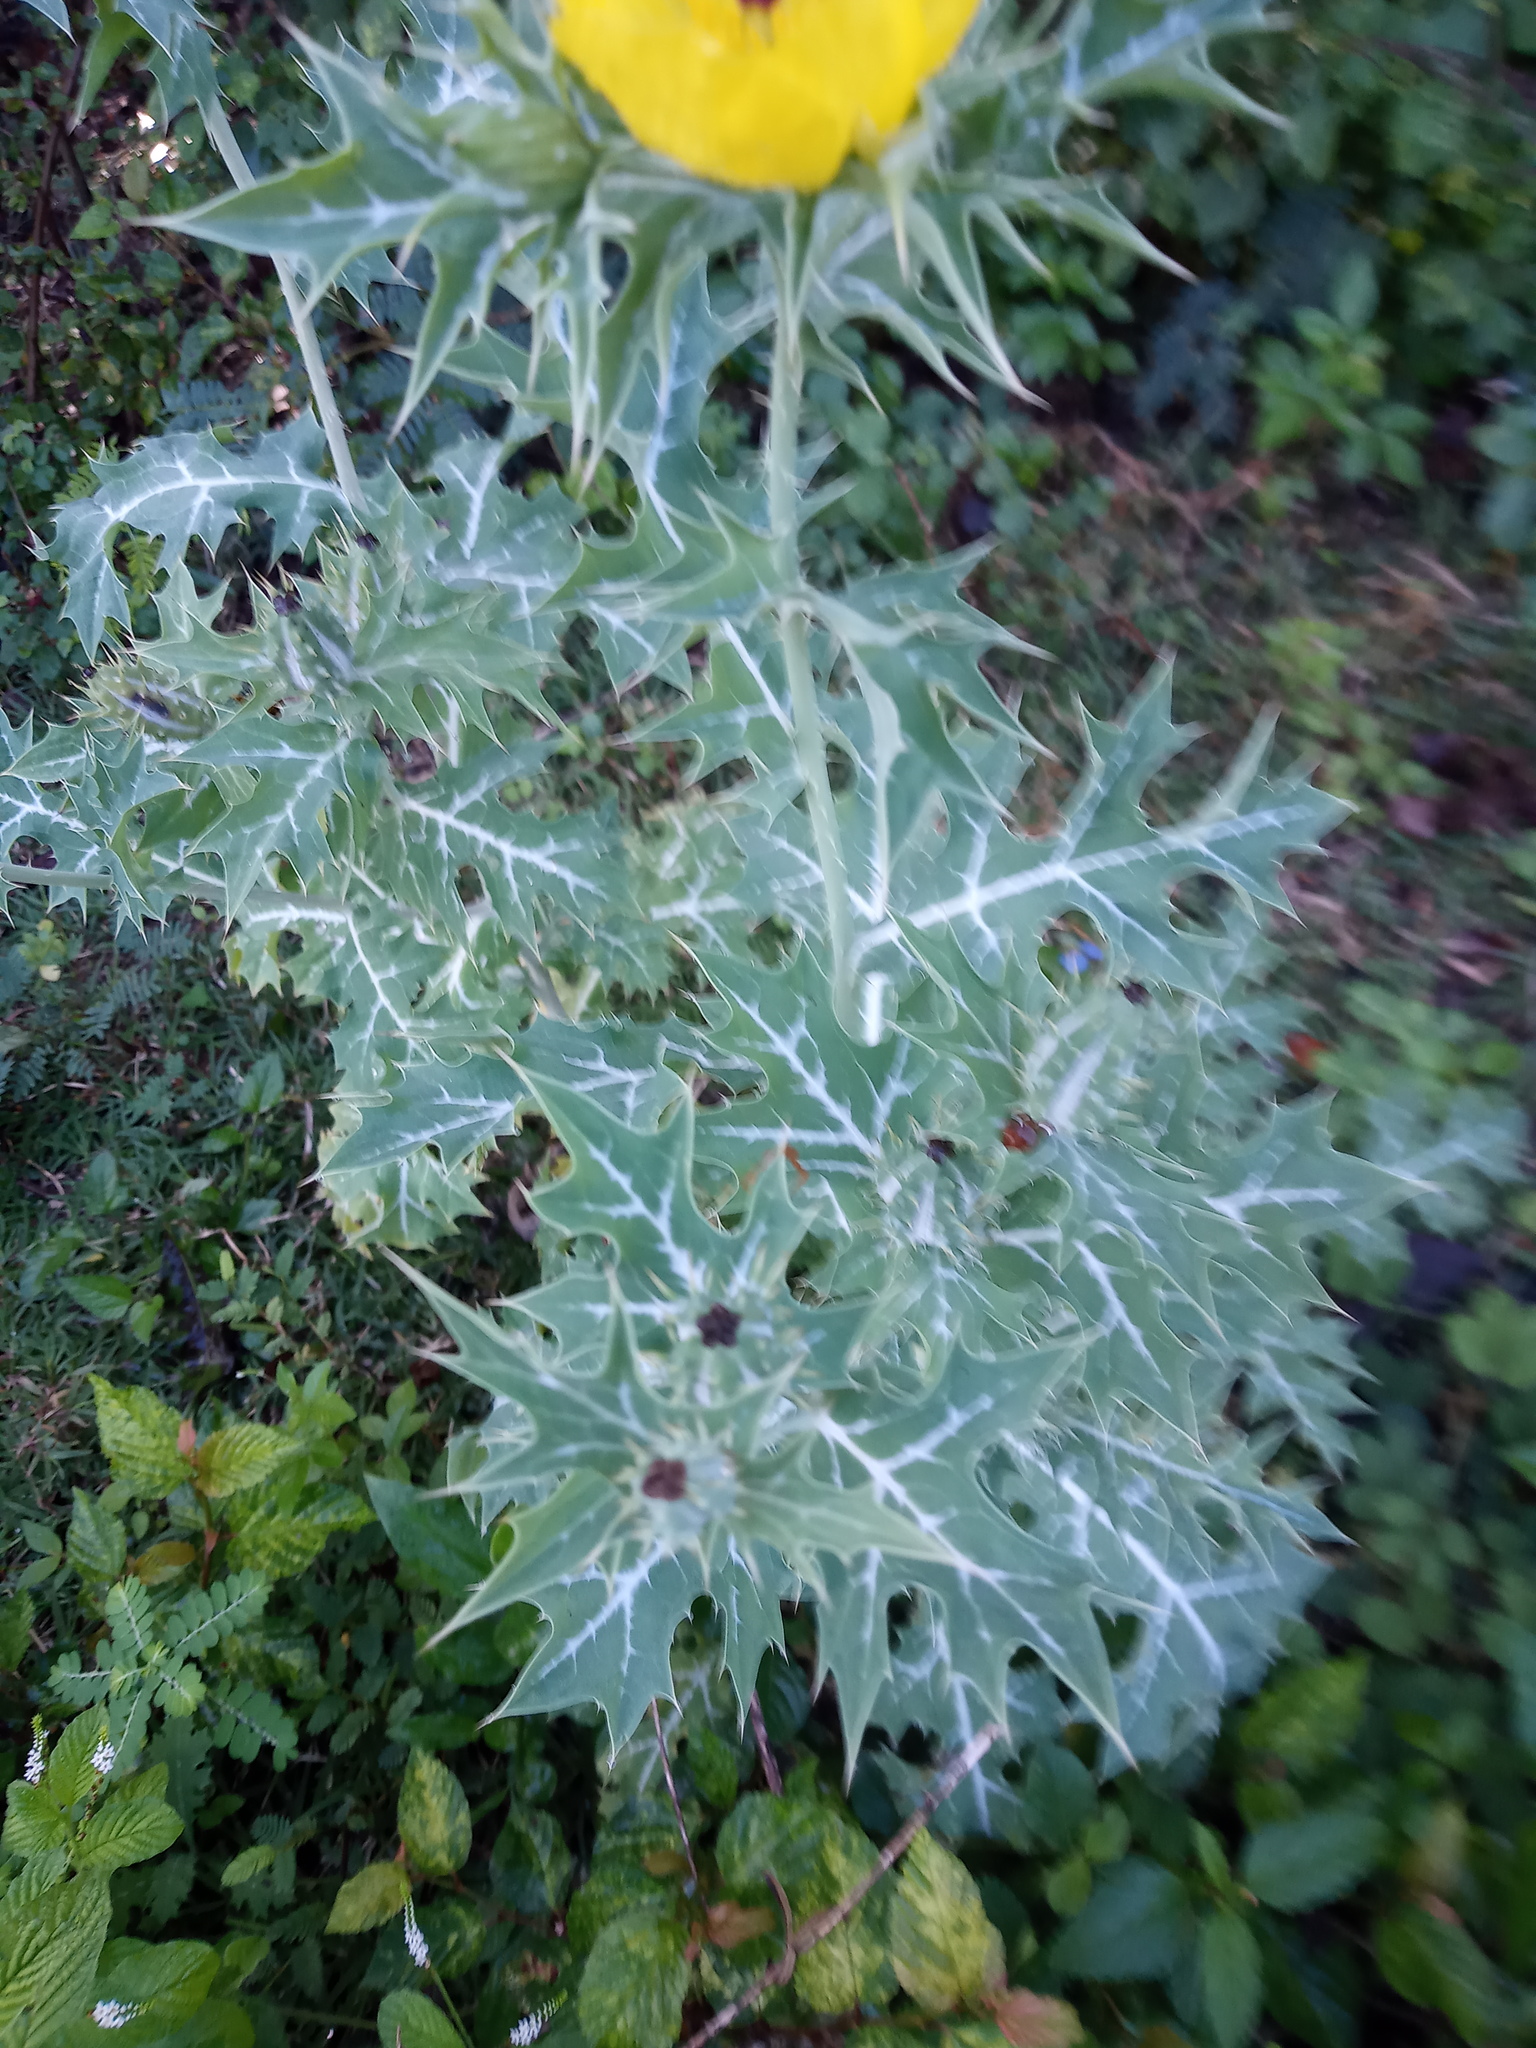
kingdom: Plantae
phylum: Tracheophyta
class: Magnoliopsida
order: Ranunculales
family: Papaveraceae
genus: Argemone
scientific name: Argemone mexicana
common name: Mexican poppy
